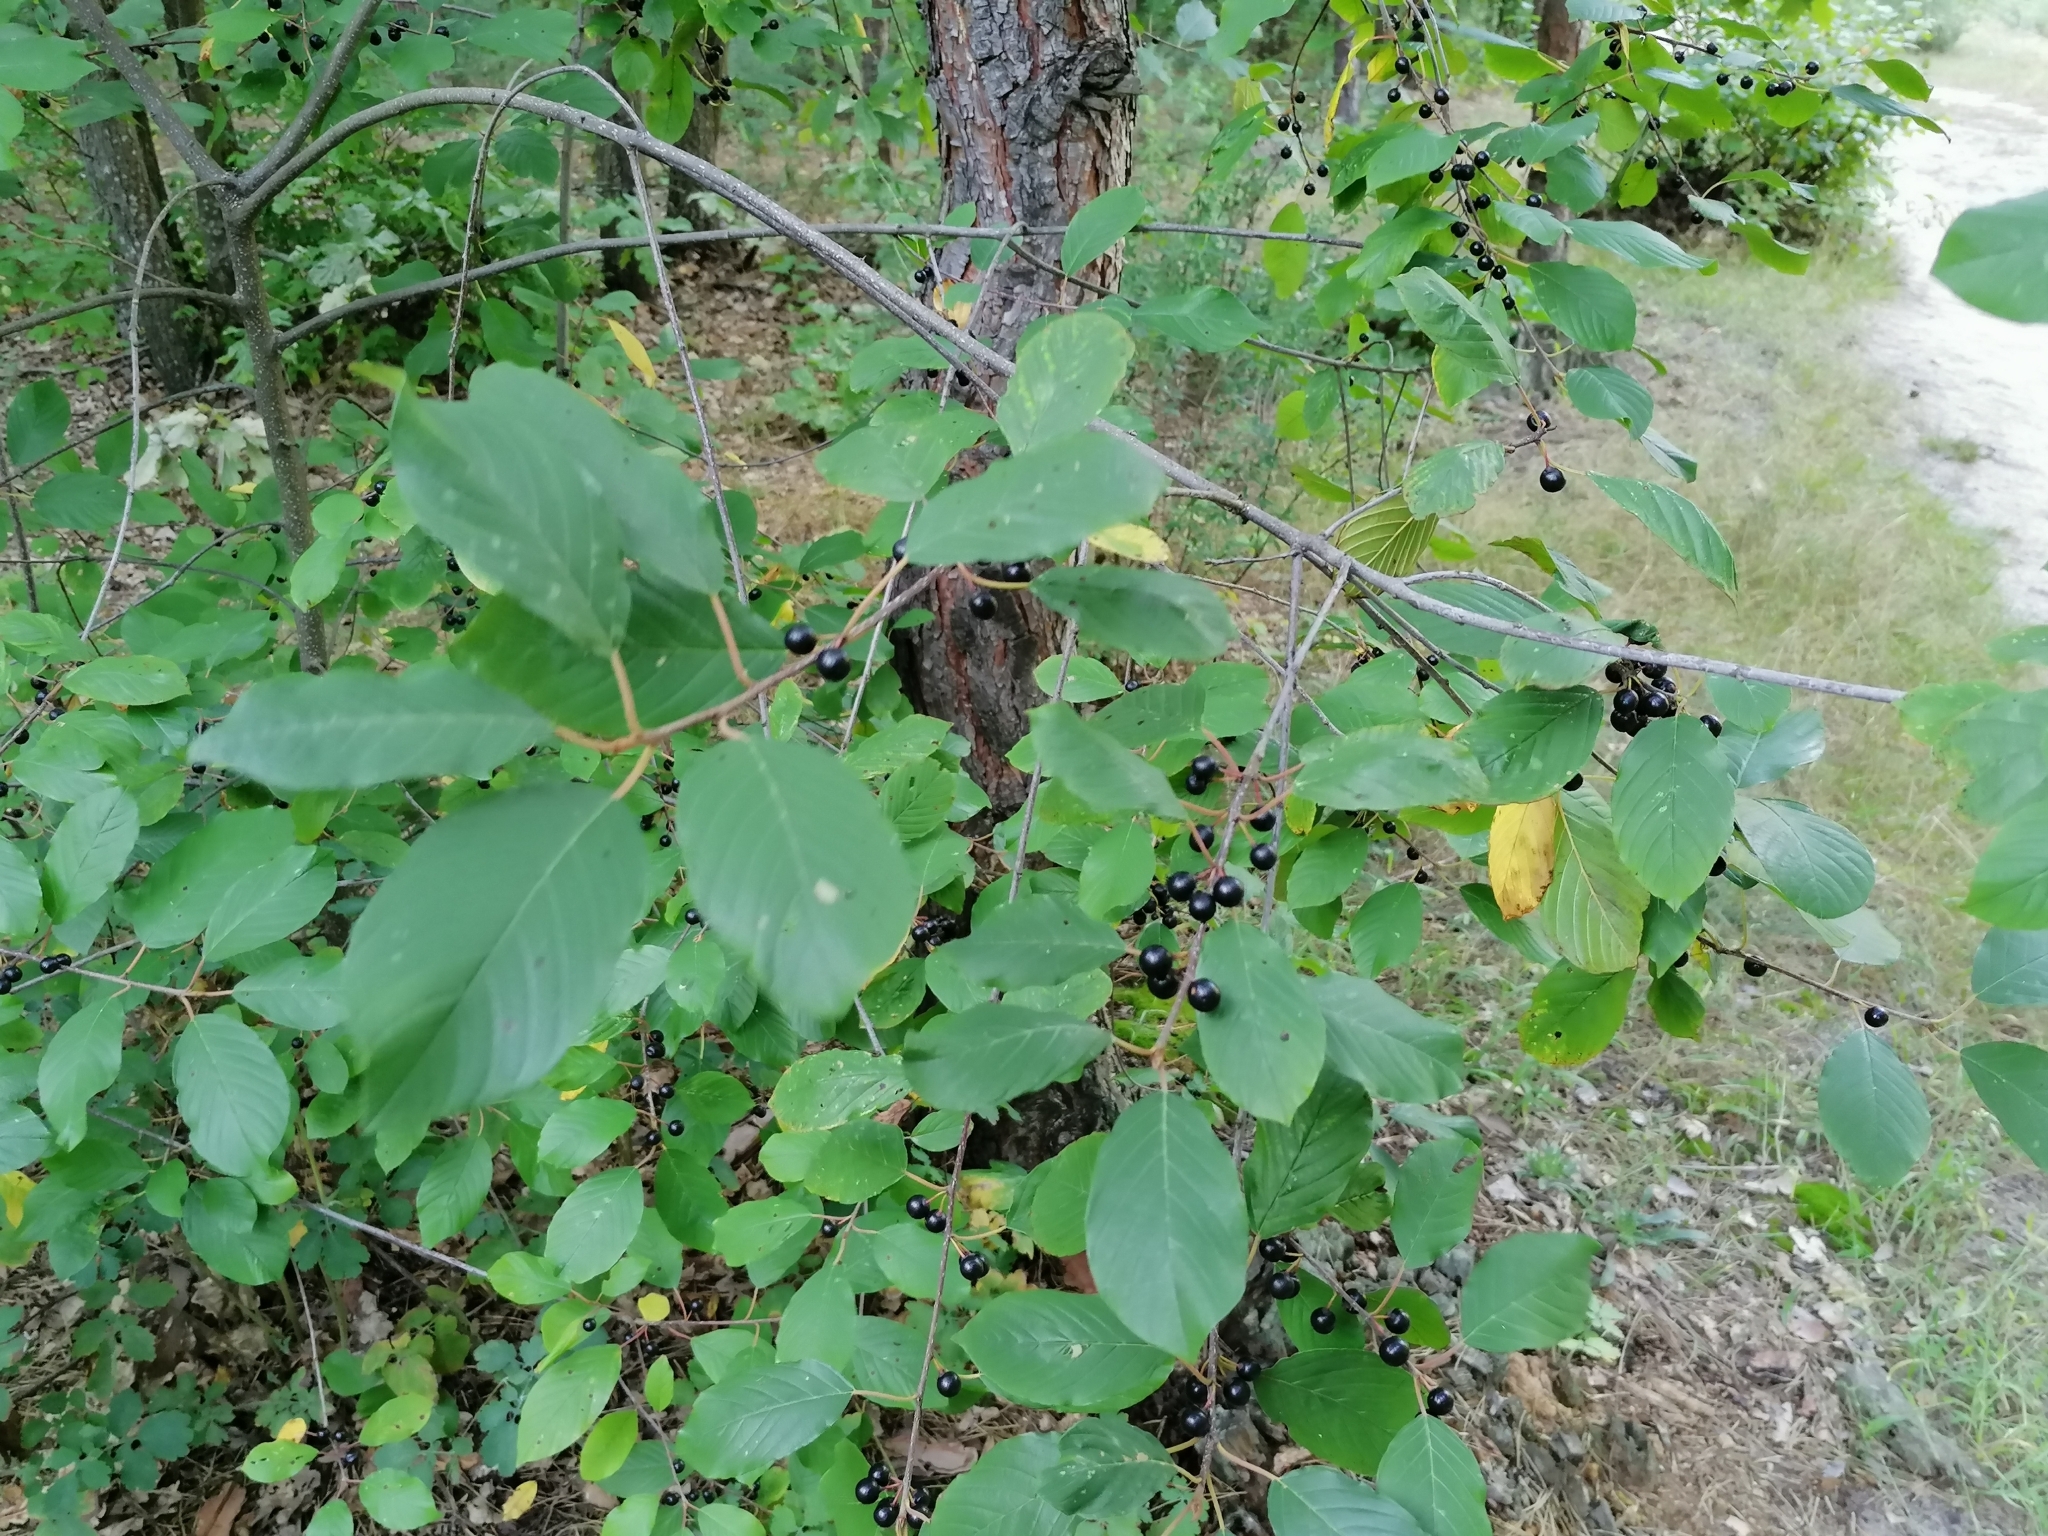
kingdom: Plantae
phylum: Tracheophyta
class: Magnoliopsida
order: Rosales
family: Rhamnaceae
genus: Frangula
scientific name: Frangula alnus
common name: Alder buckthorn
